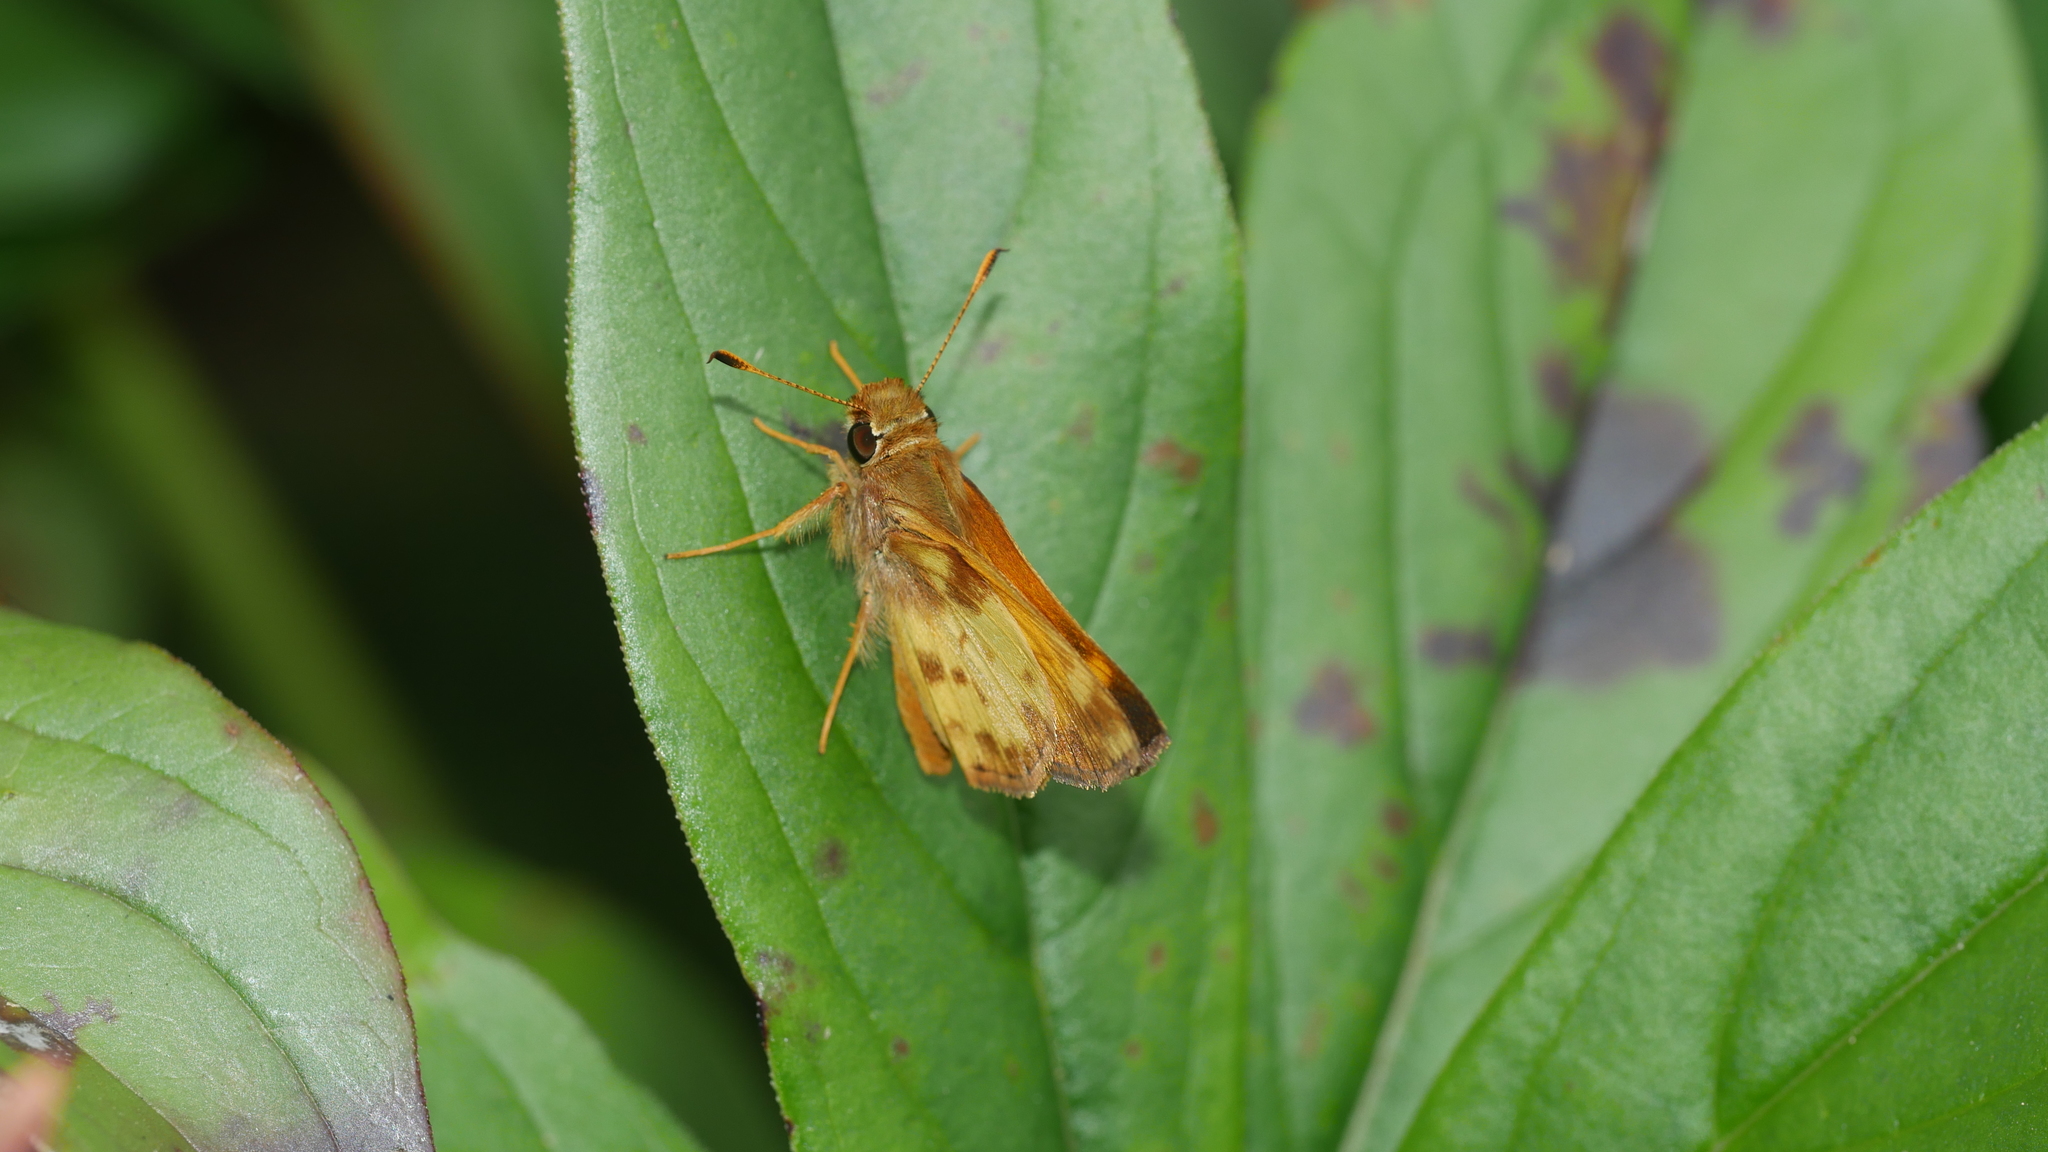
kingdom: Animalia
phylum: Arthropoda
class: Insecta
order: Lepidoptera
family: Hesperiidae
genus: Lon
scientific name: Lon zabulon
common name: Zabulon skipper
